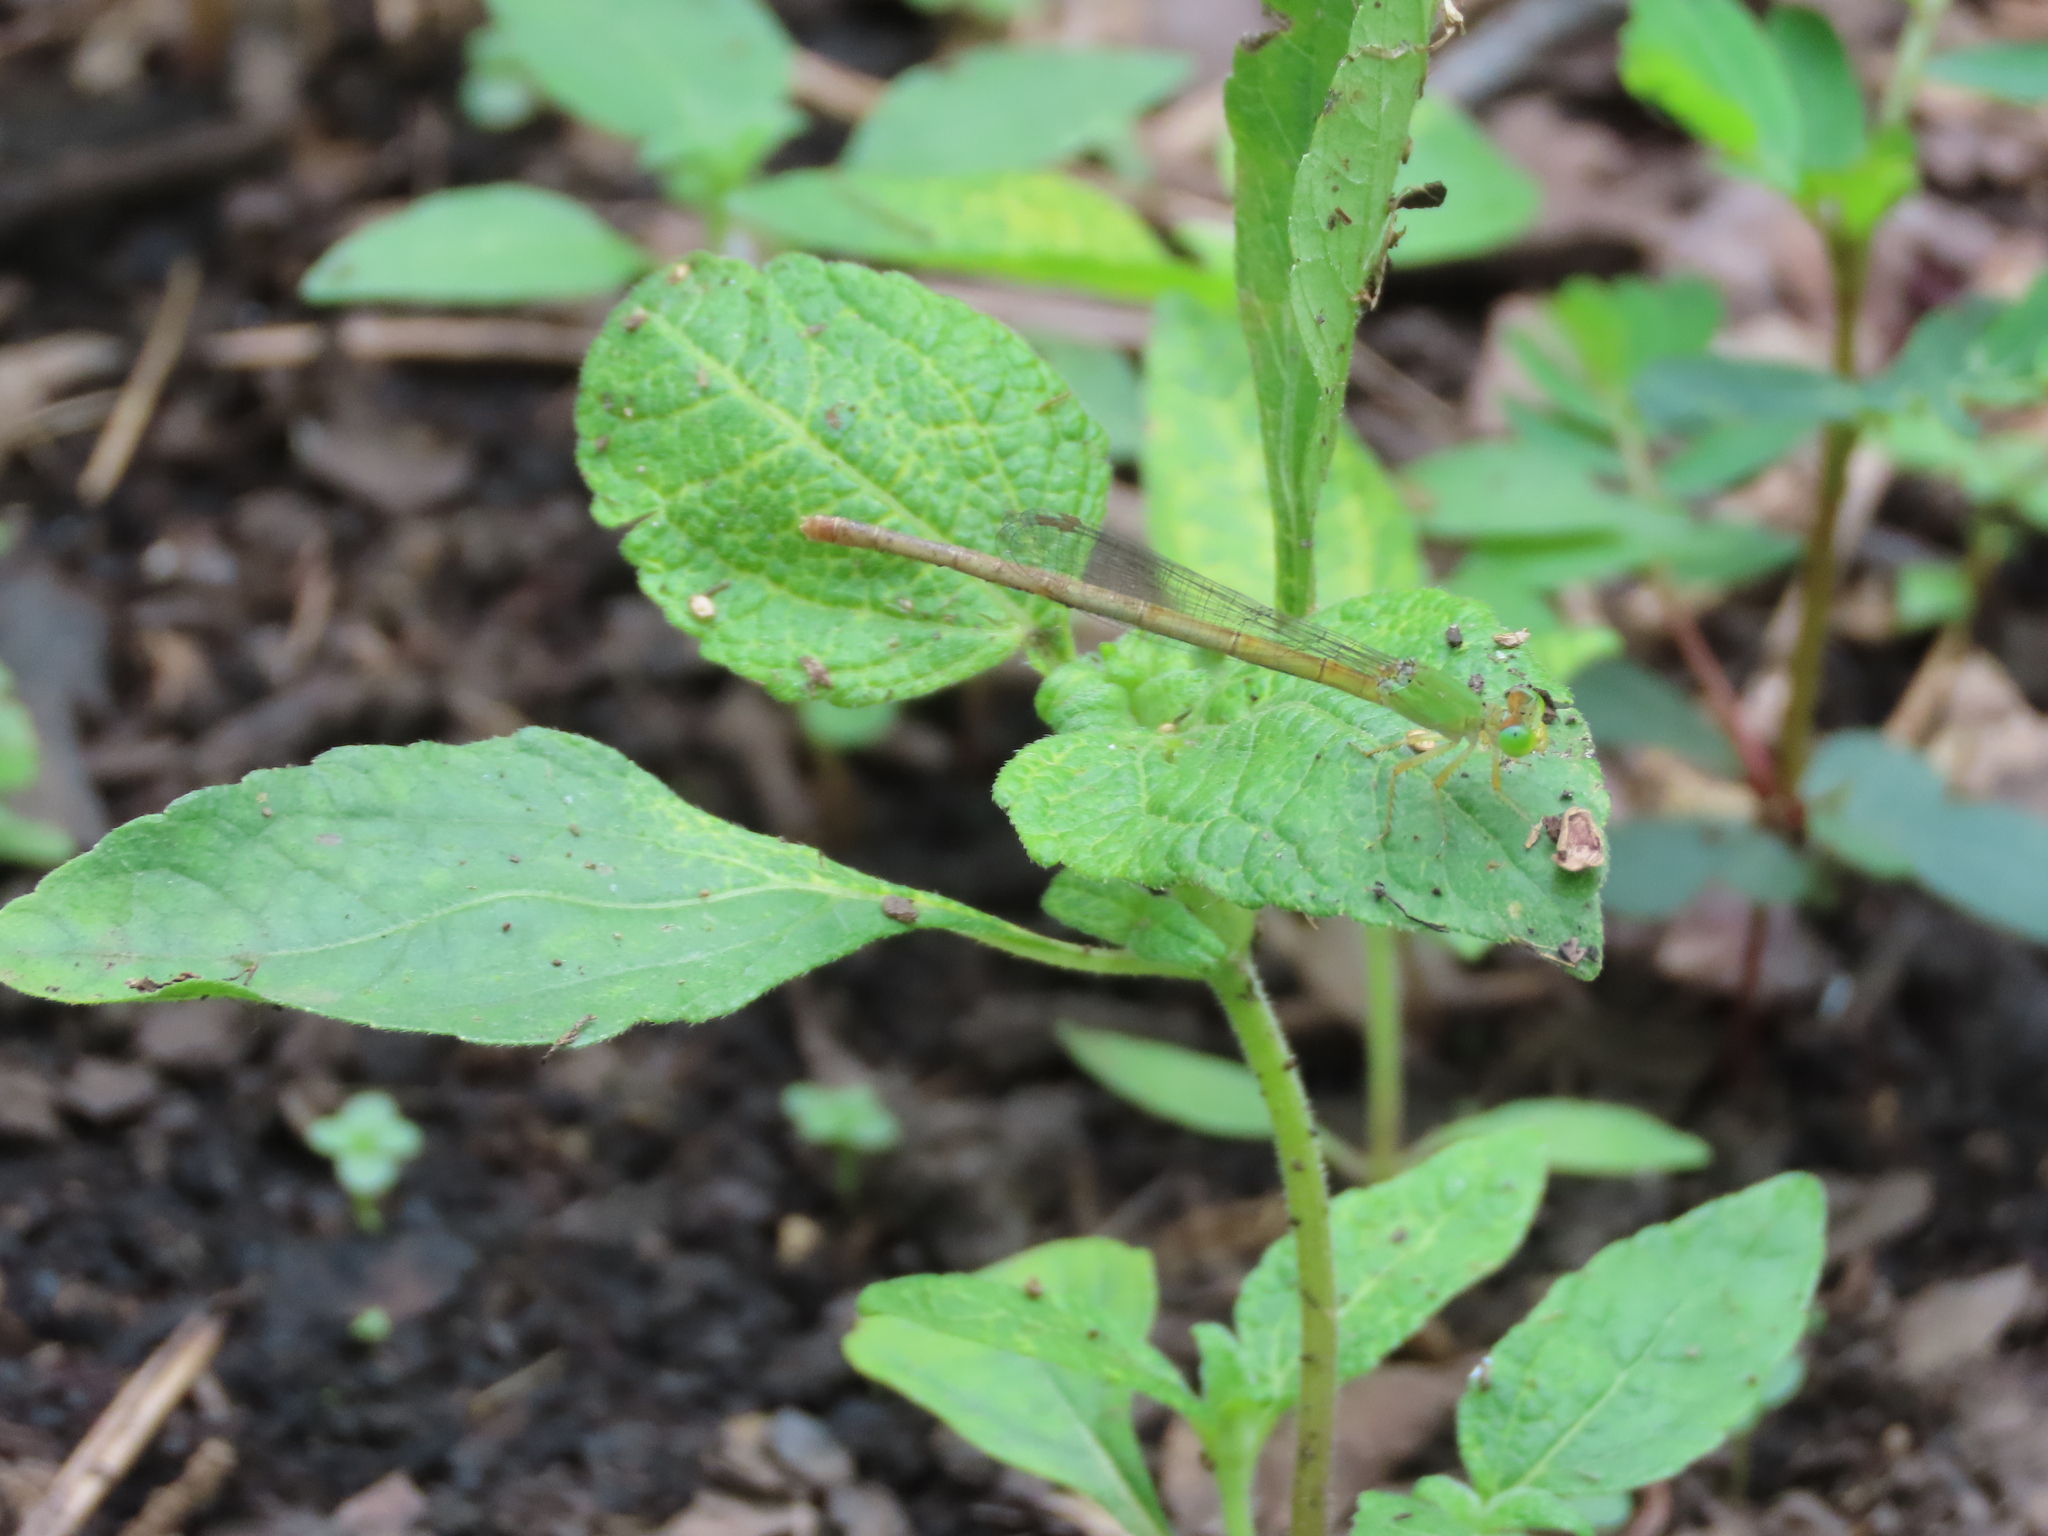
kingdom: Animalia
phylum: Arthropoda
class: Insecta
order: Odonata
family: Coenagrionidae
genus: Ceriagrion
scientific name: Ceriagrion coromandelianum
